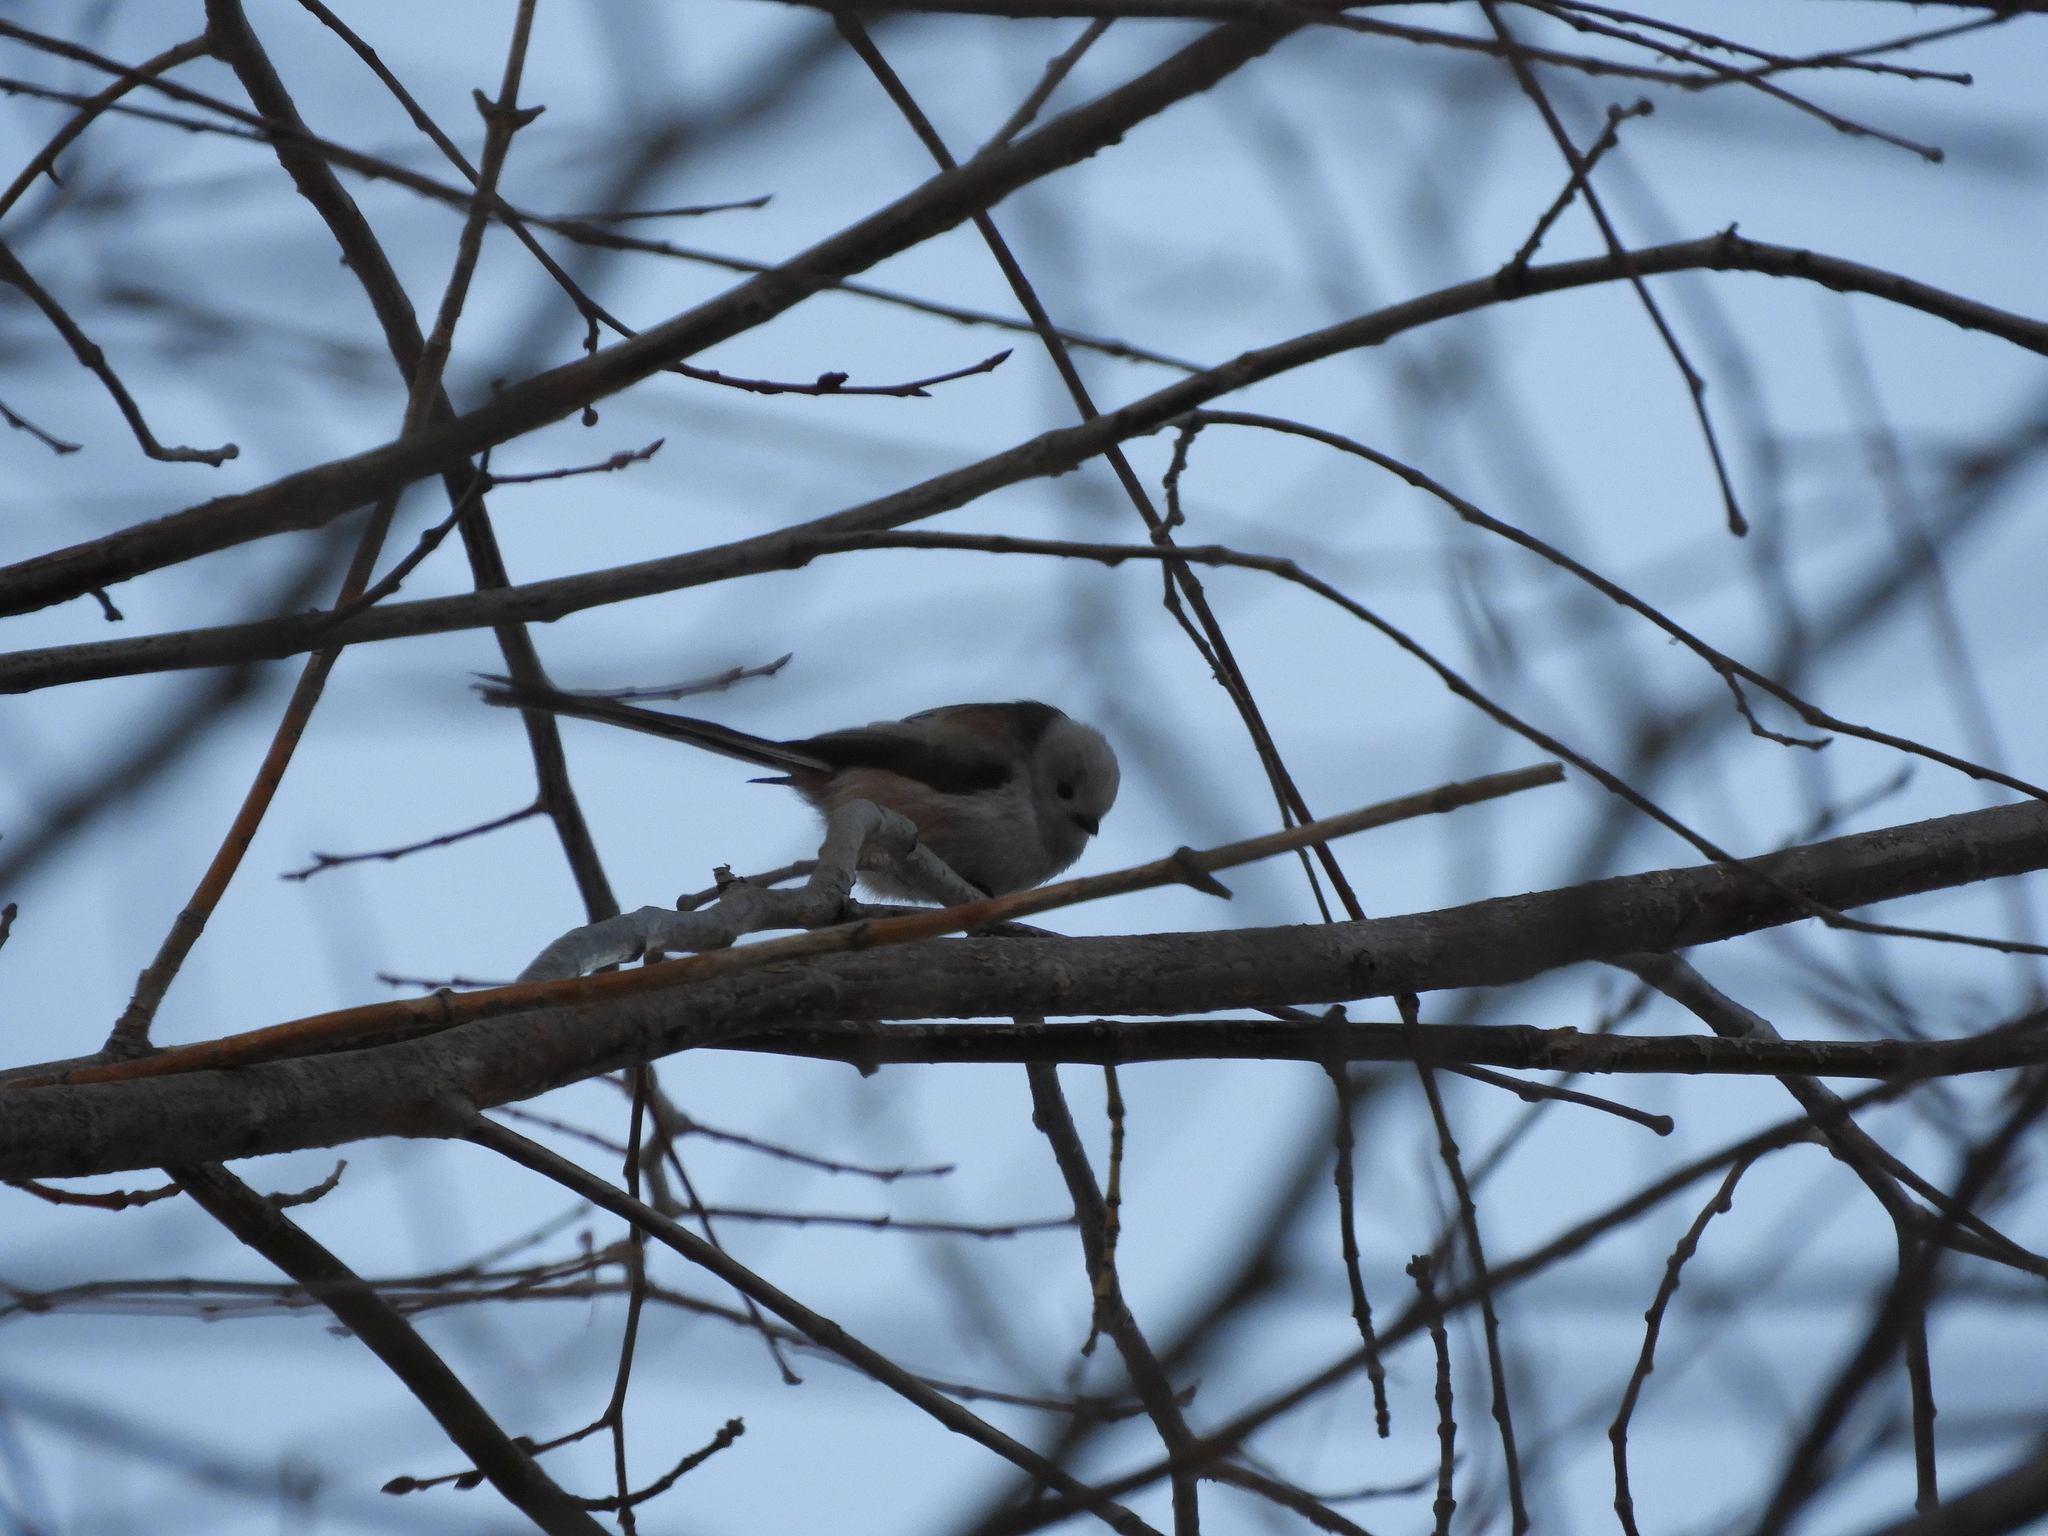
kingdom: Animalia
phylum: Chordata
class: Aves
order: Passeriformes
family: Aegithalidae
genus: Aegithalos
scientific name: Aegithalos caudatus
